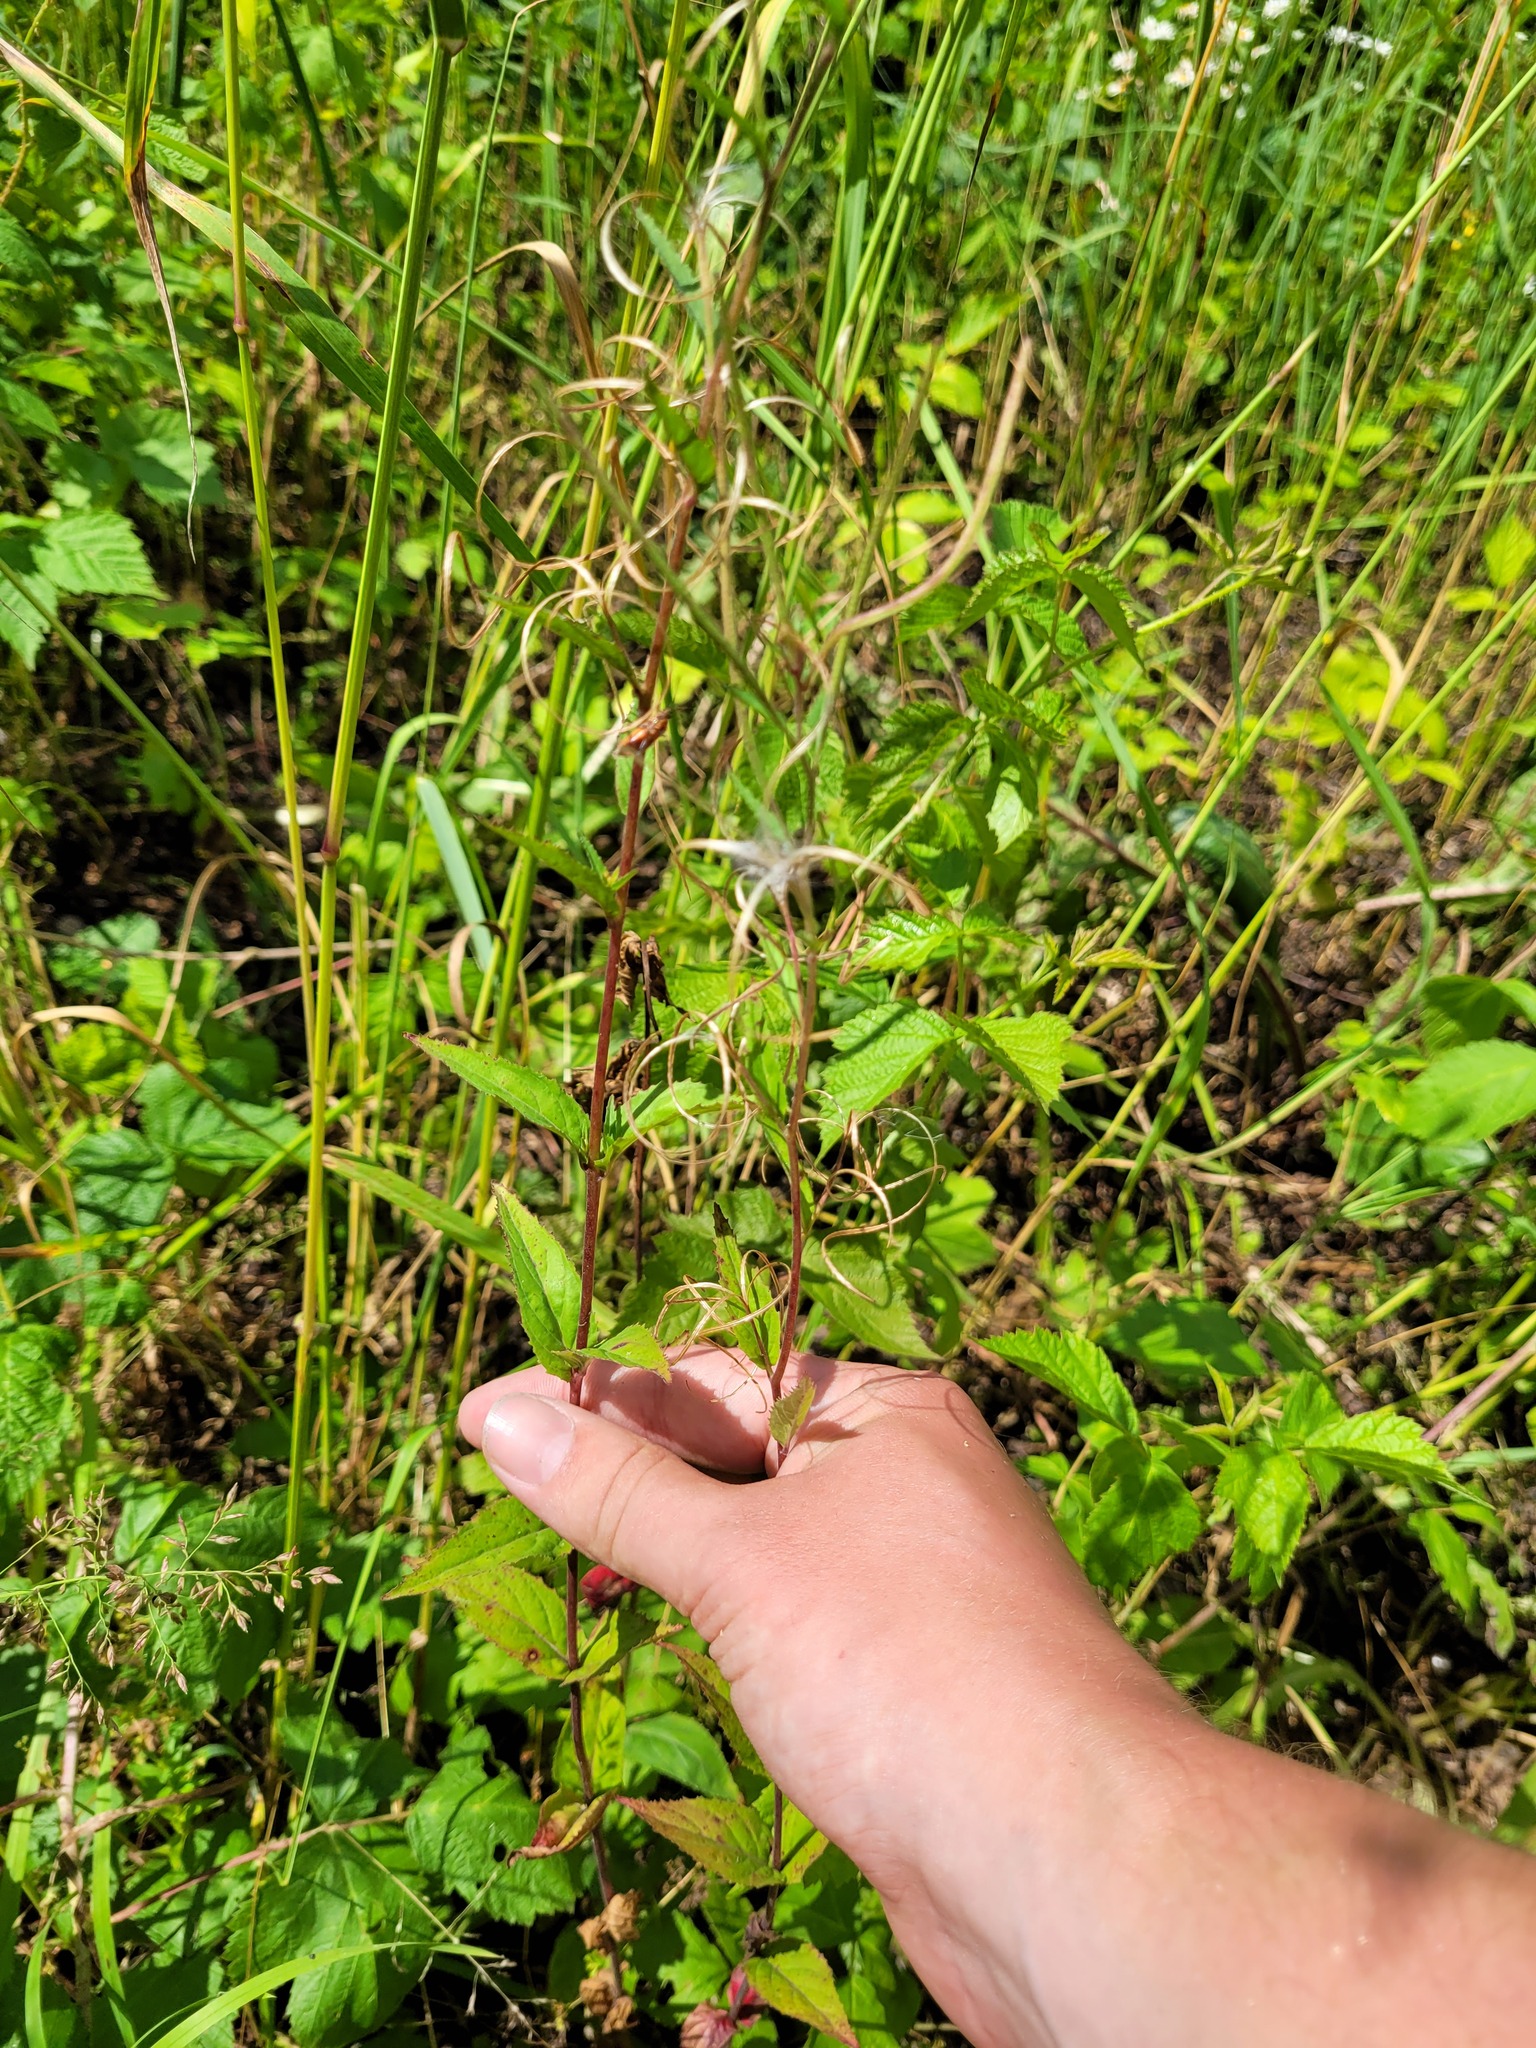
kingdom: Plantae
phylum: Tracheophyta
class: Magnoliopsida
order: Myrtales
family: Onagraceae
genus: Epilobium
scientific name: Epilobium montanum
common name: Broad-leaved willowherb
